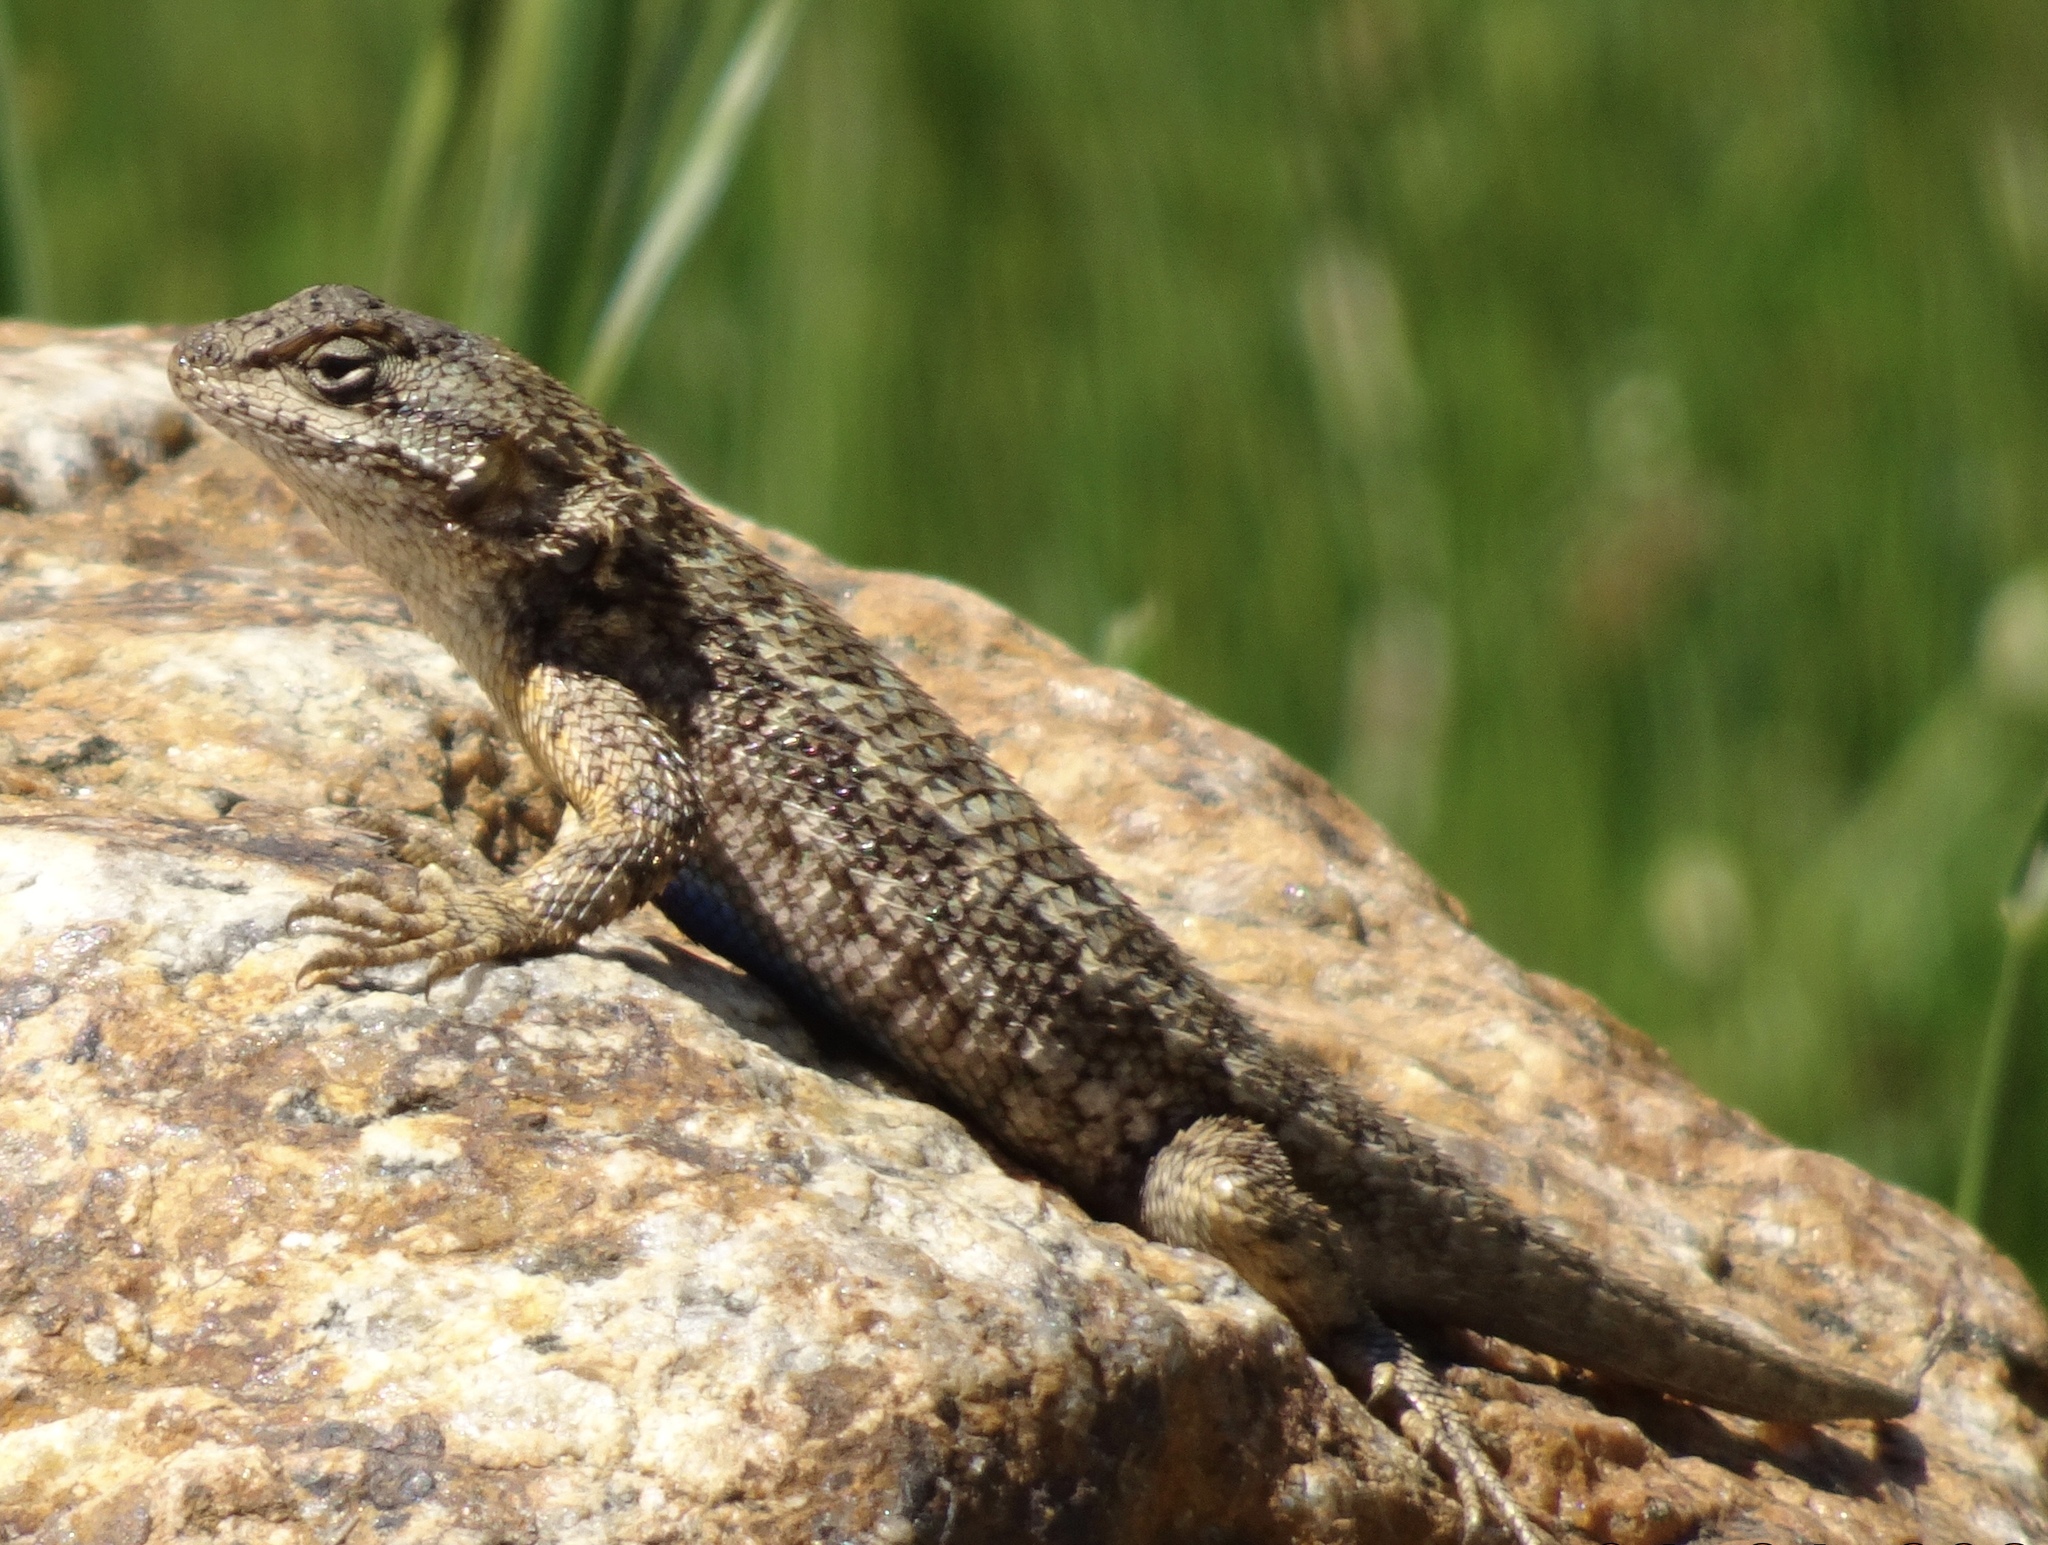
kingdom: Animalia
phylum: Chordata
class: Squamata
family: Phrynosomatidae
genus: Sceloporus
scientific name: Sceloporus occidentalis
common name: Western fence lizard
